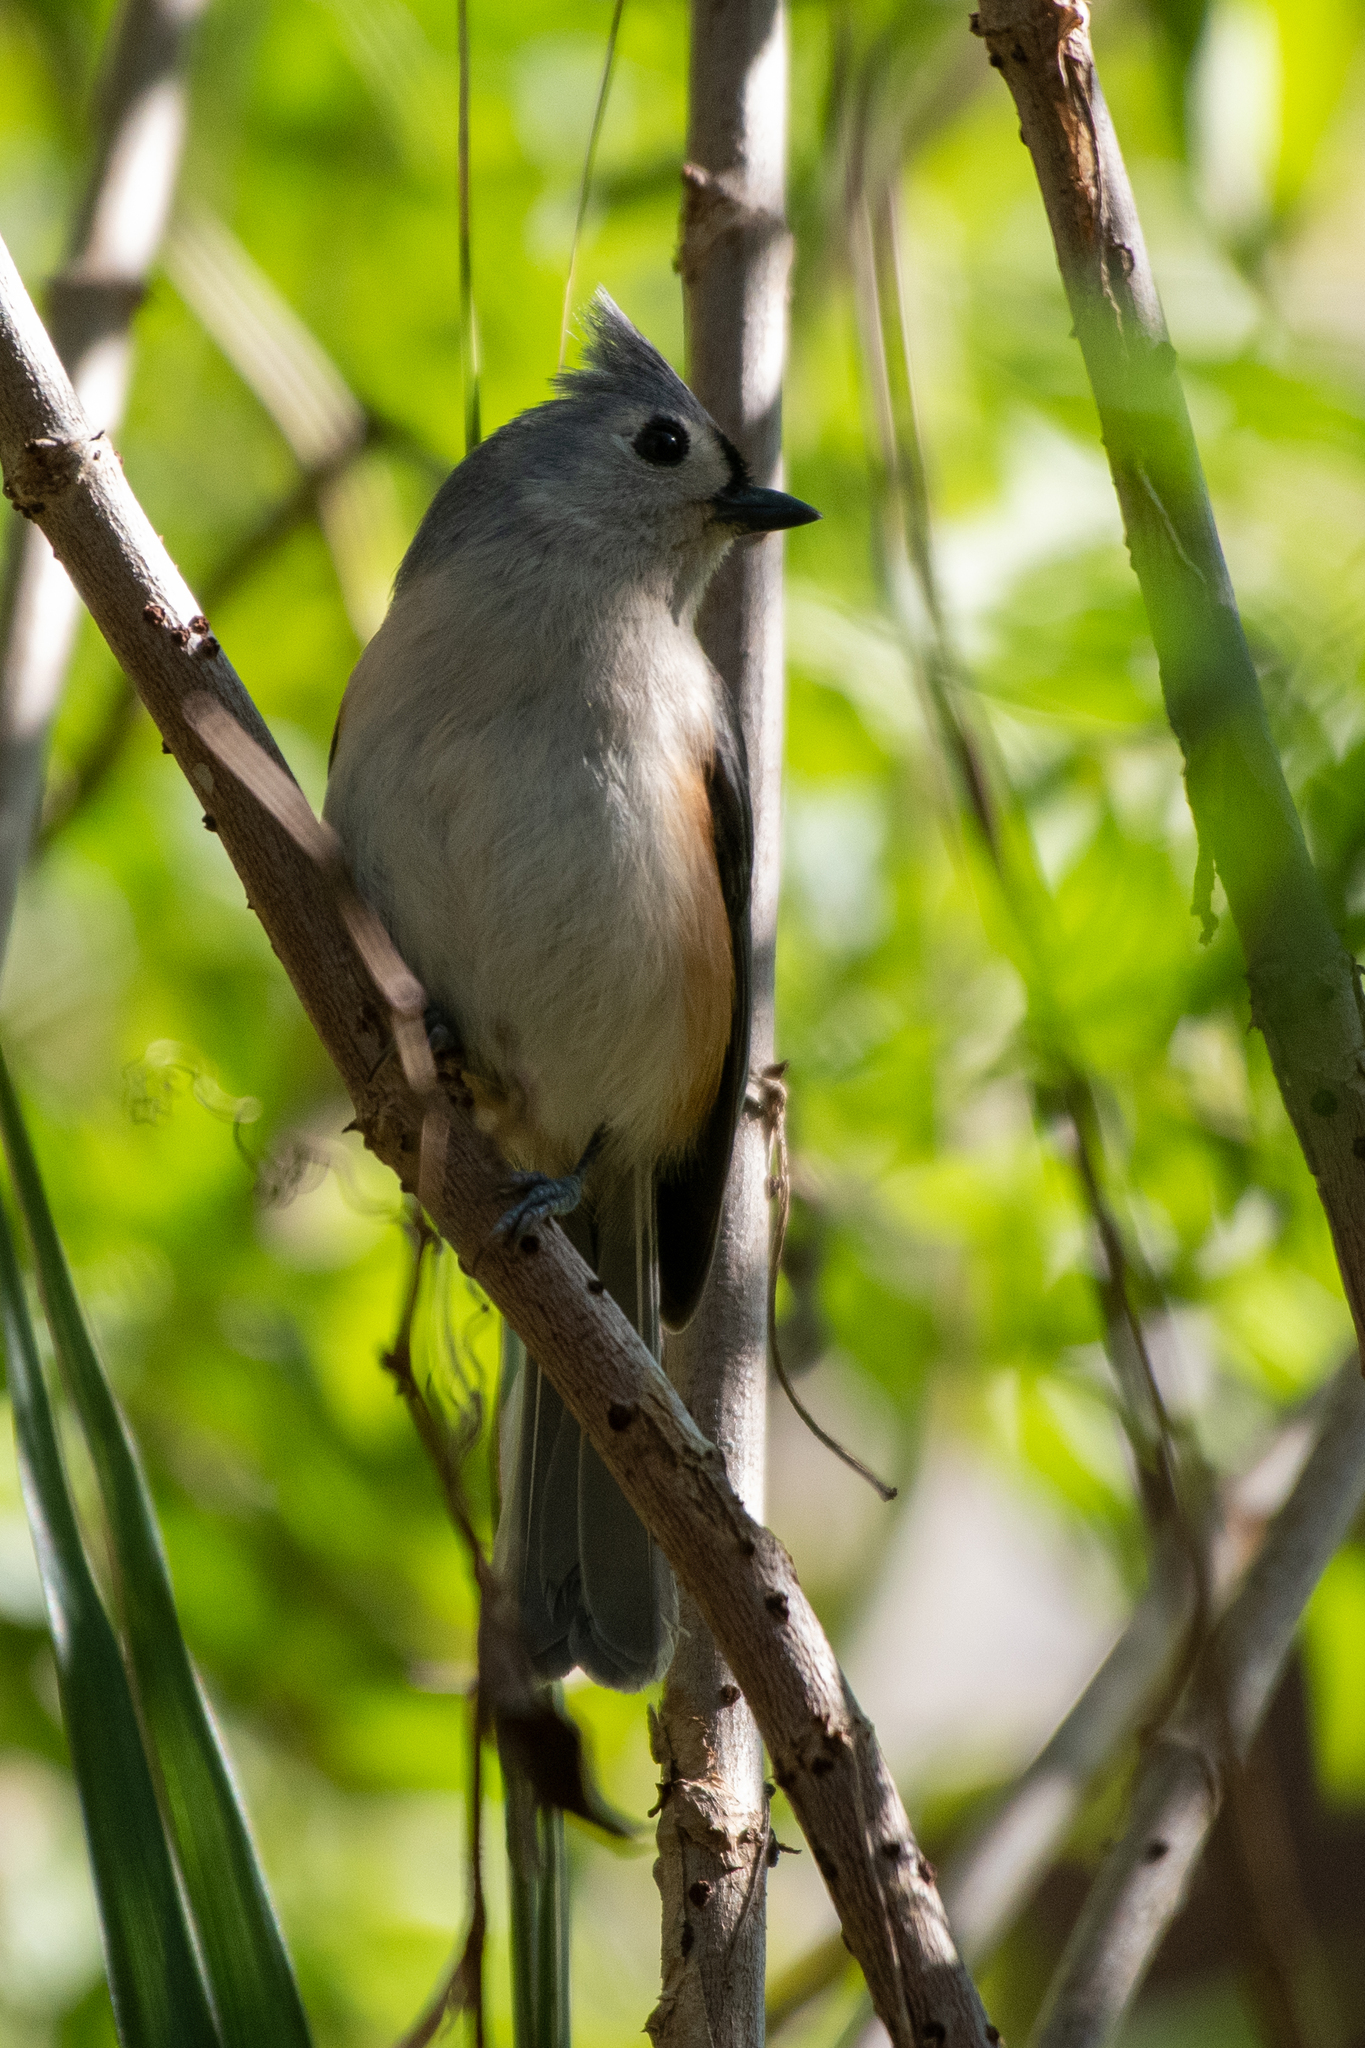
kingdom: Animalia
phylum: Chordata
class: Aves
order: Passeriformes
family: Paridae
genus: Baeolophus
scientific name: Baeolophus bicolor
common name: Tufted titmouse
